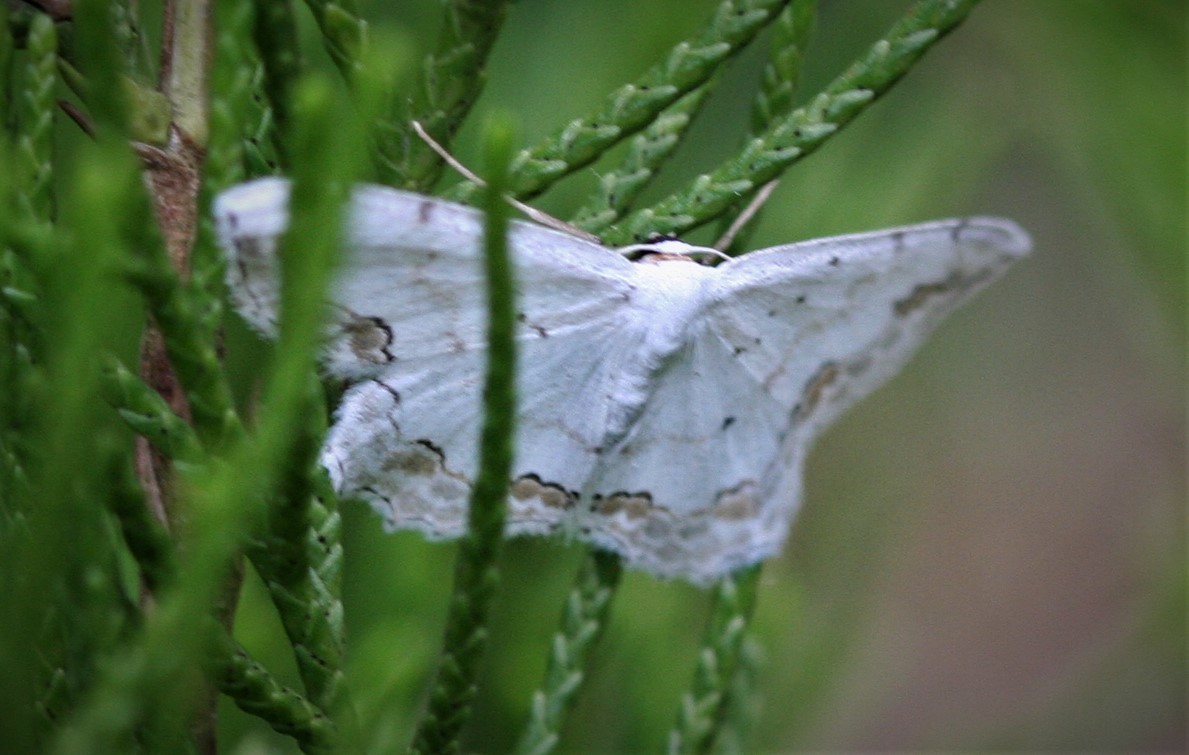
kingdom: Animalia
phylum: Arthropoda
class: Insecta
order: Lepidoptera
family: Geometridae
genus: Scopula
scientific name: Scopula ornata
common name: Lace border
